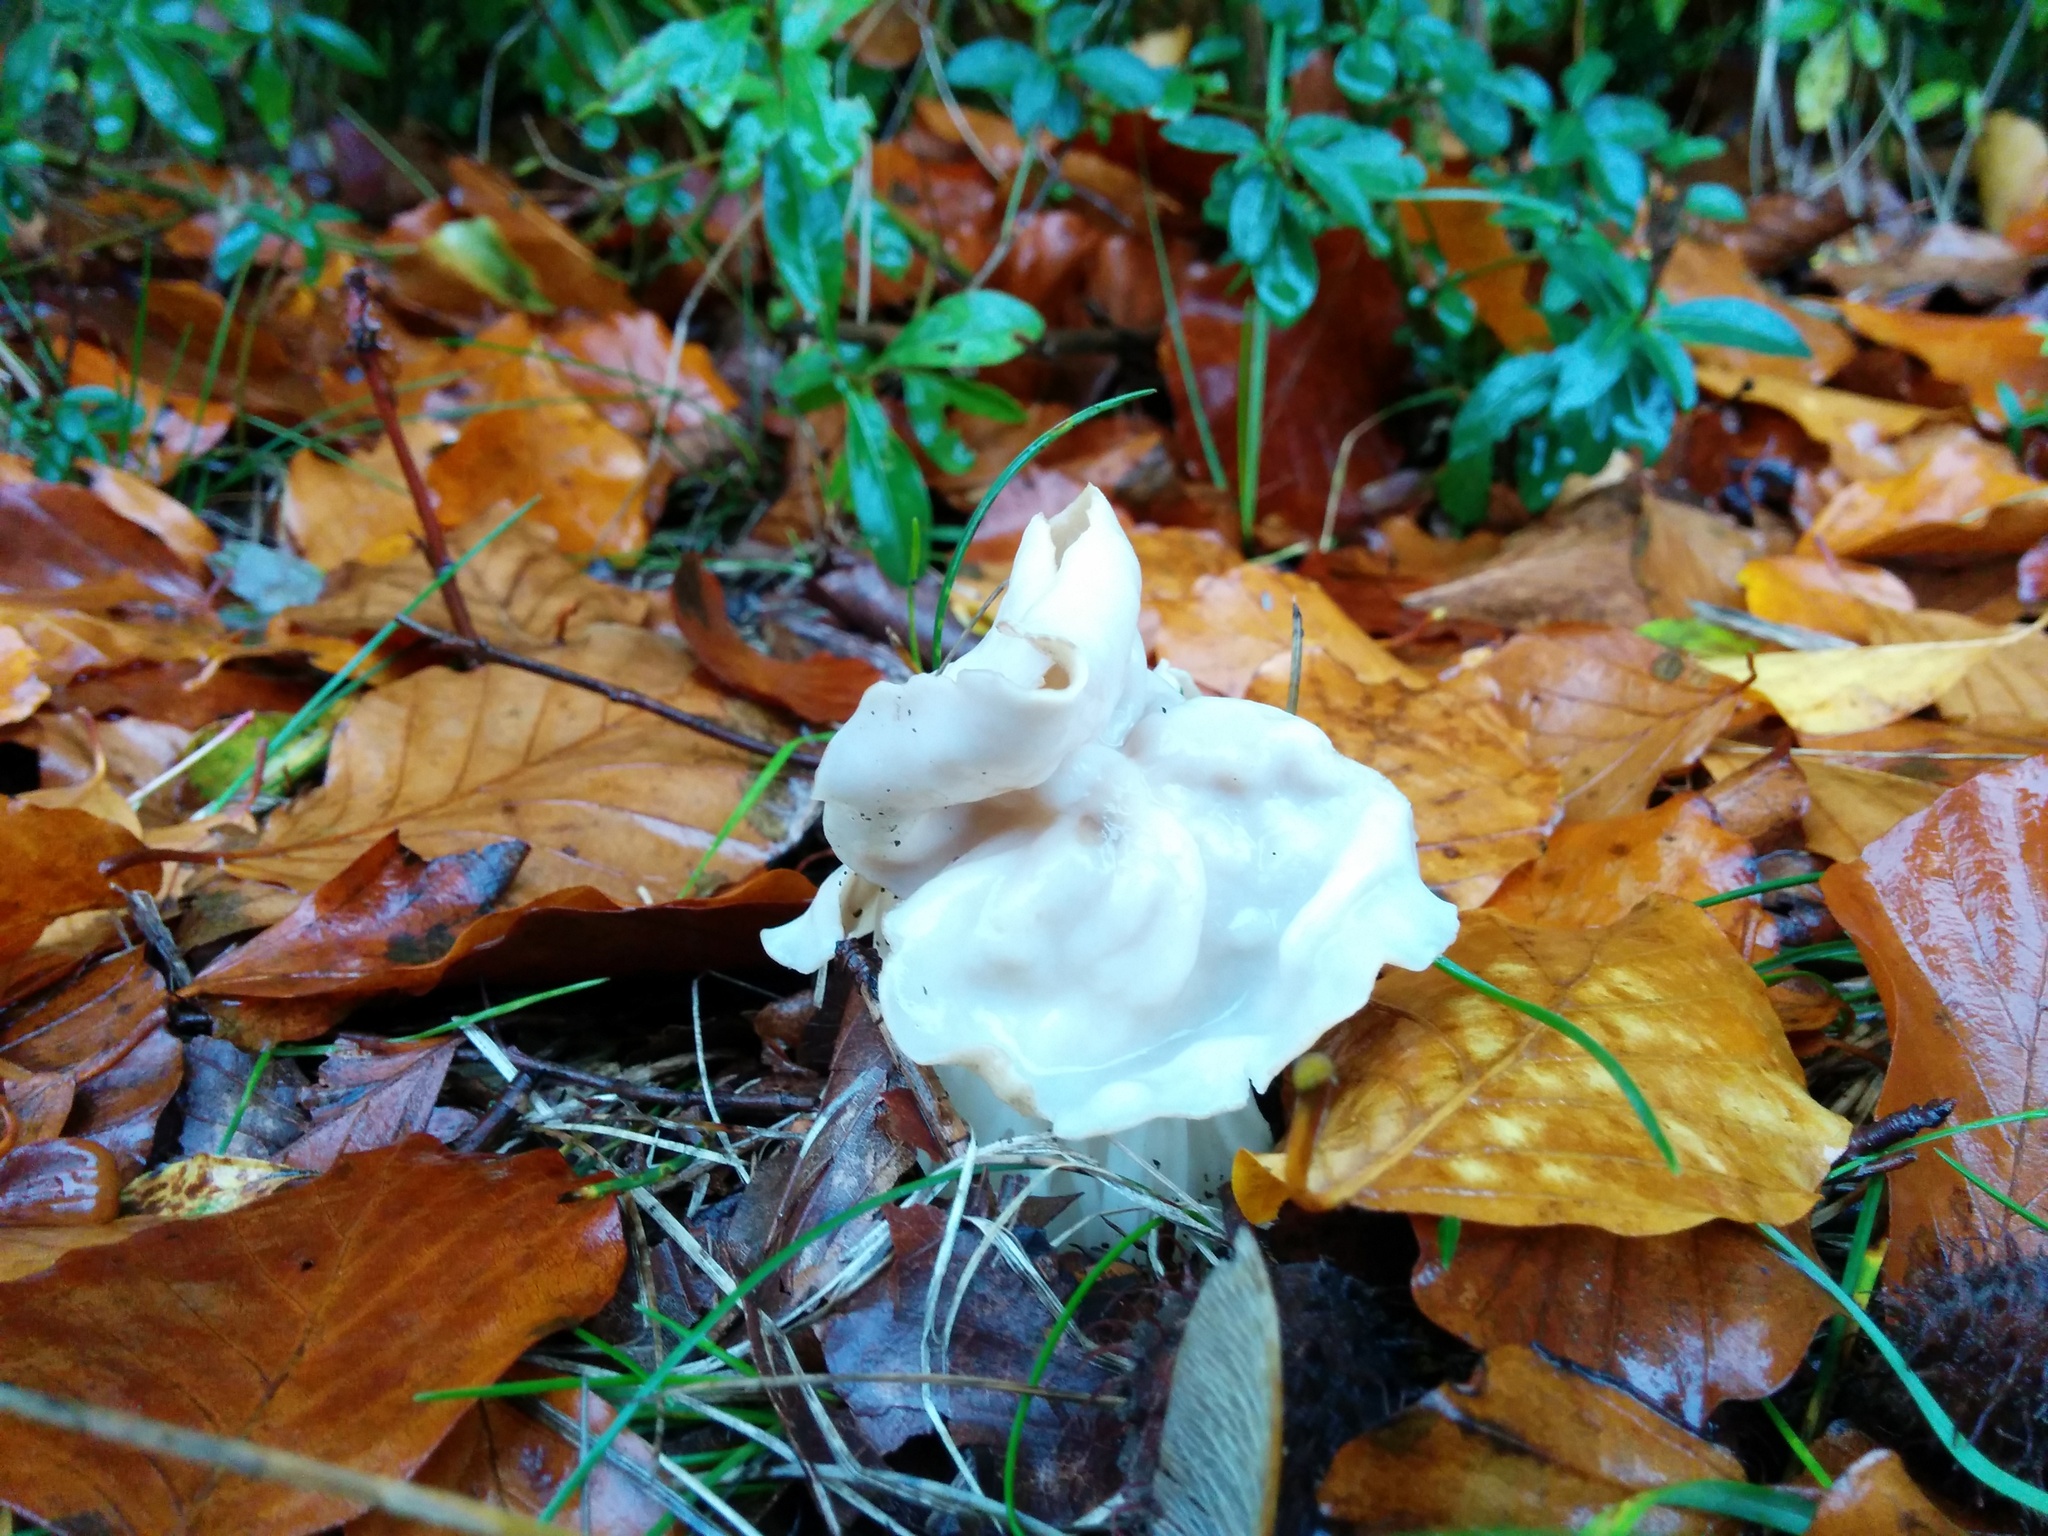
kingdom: Fungi
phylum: Ascomycota
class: Pezizomycetes
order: Pezizales
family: Helvellaceae
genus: Helvella
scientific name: Helvella crispa
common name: White saddle
